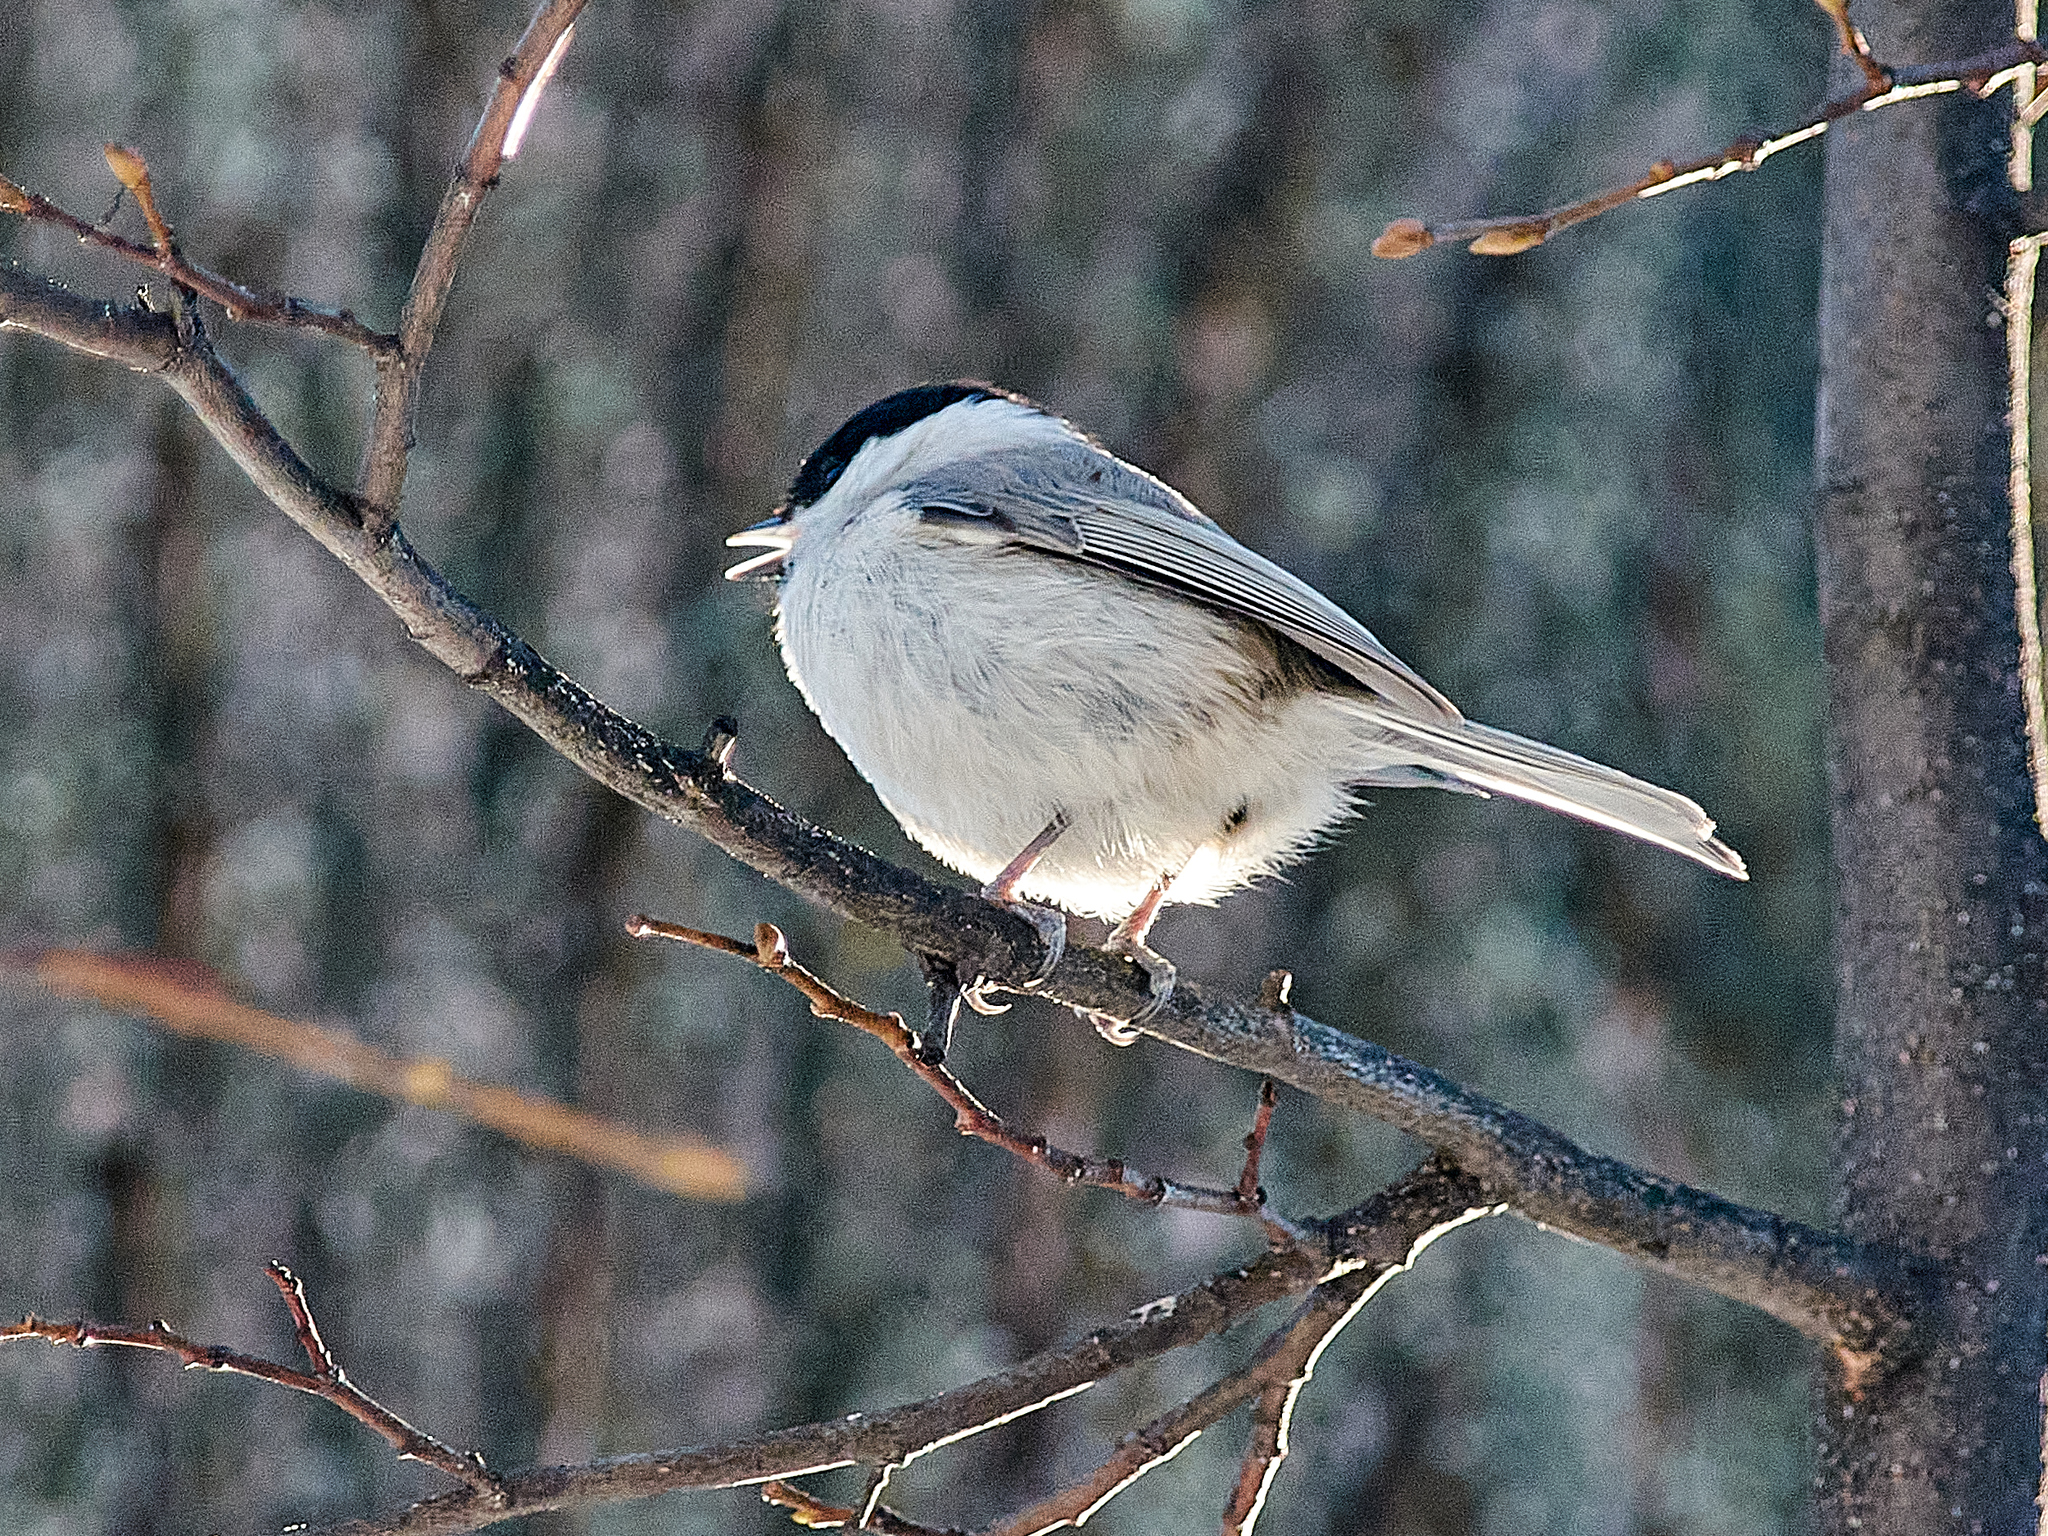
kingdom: Animalia
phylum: Chordata
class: Aves
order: Passeriformes
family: Paridae
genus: Poecile
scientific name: Poecile palustris
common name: Marsh tit
